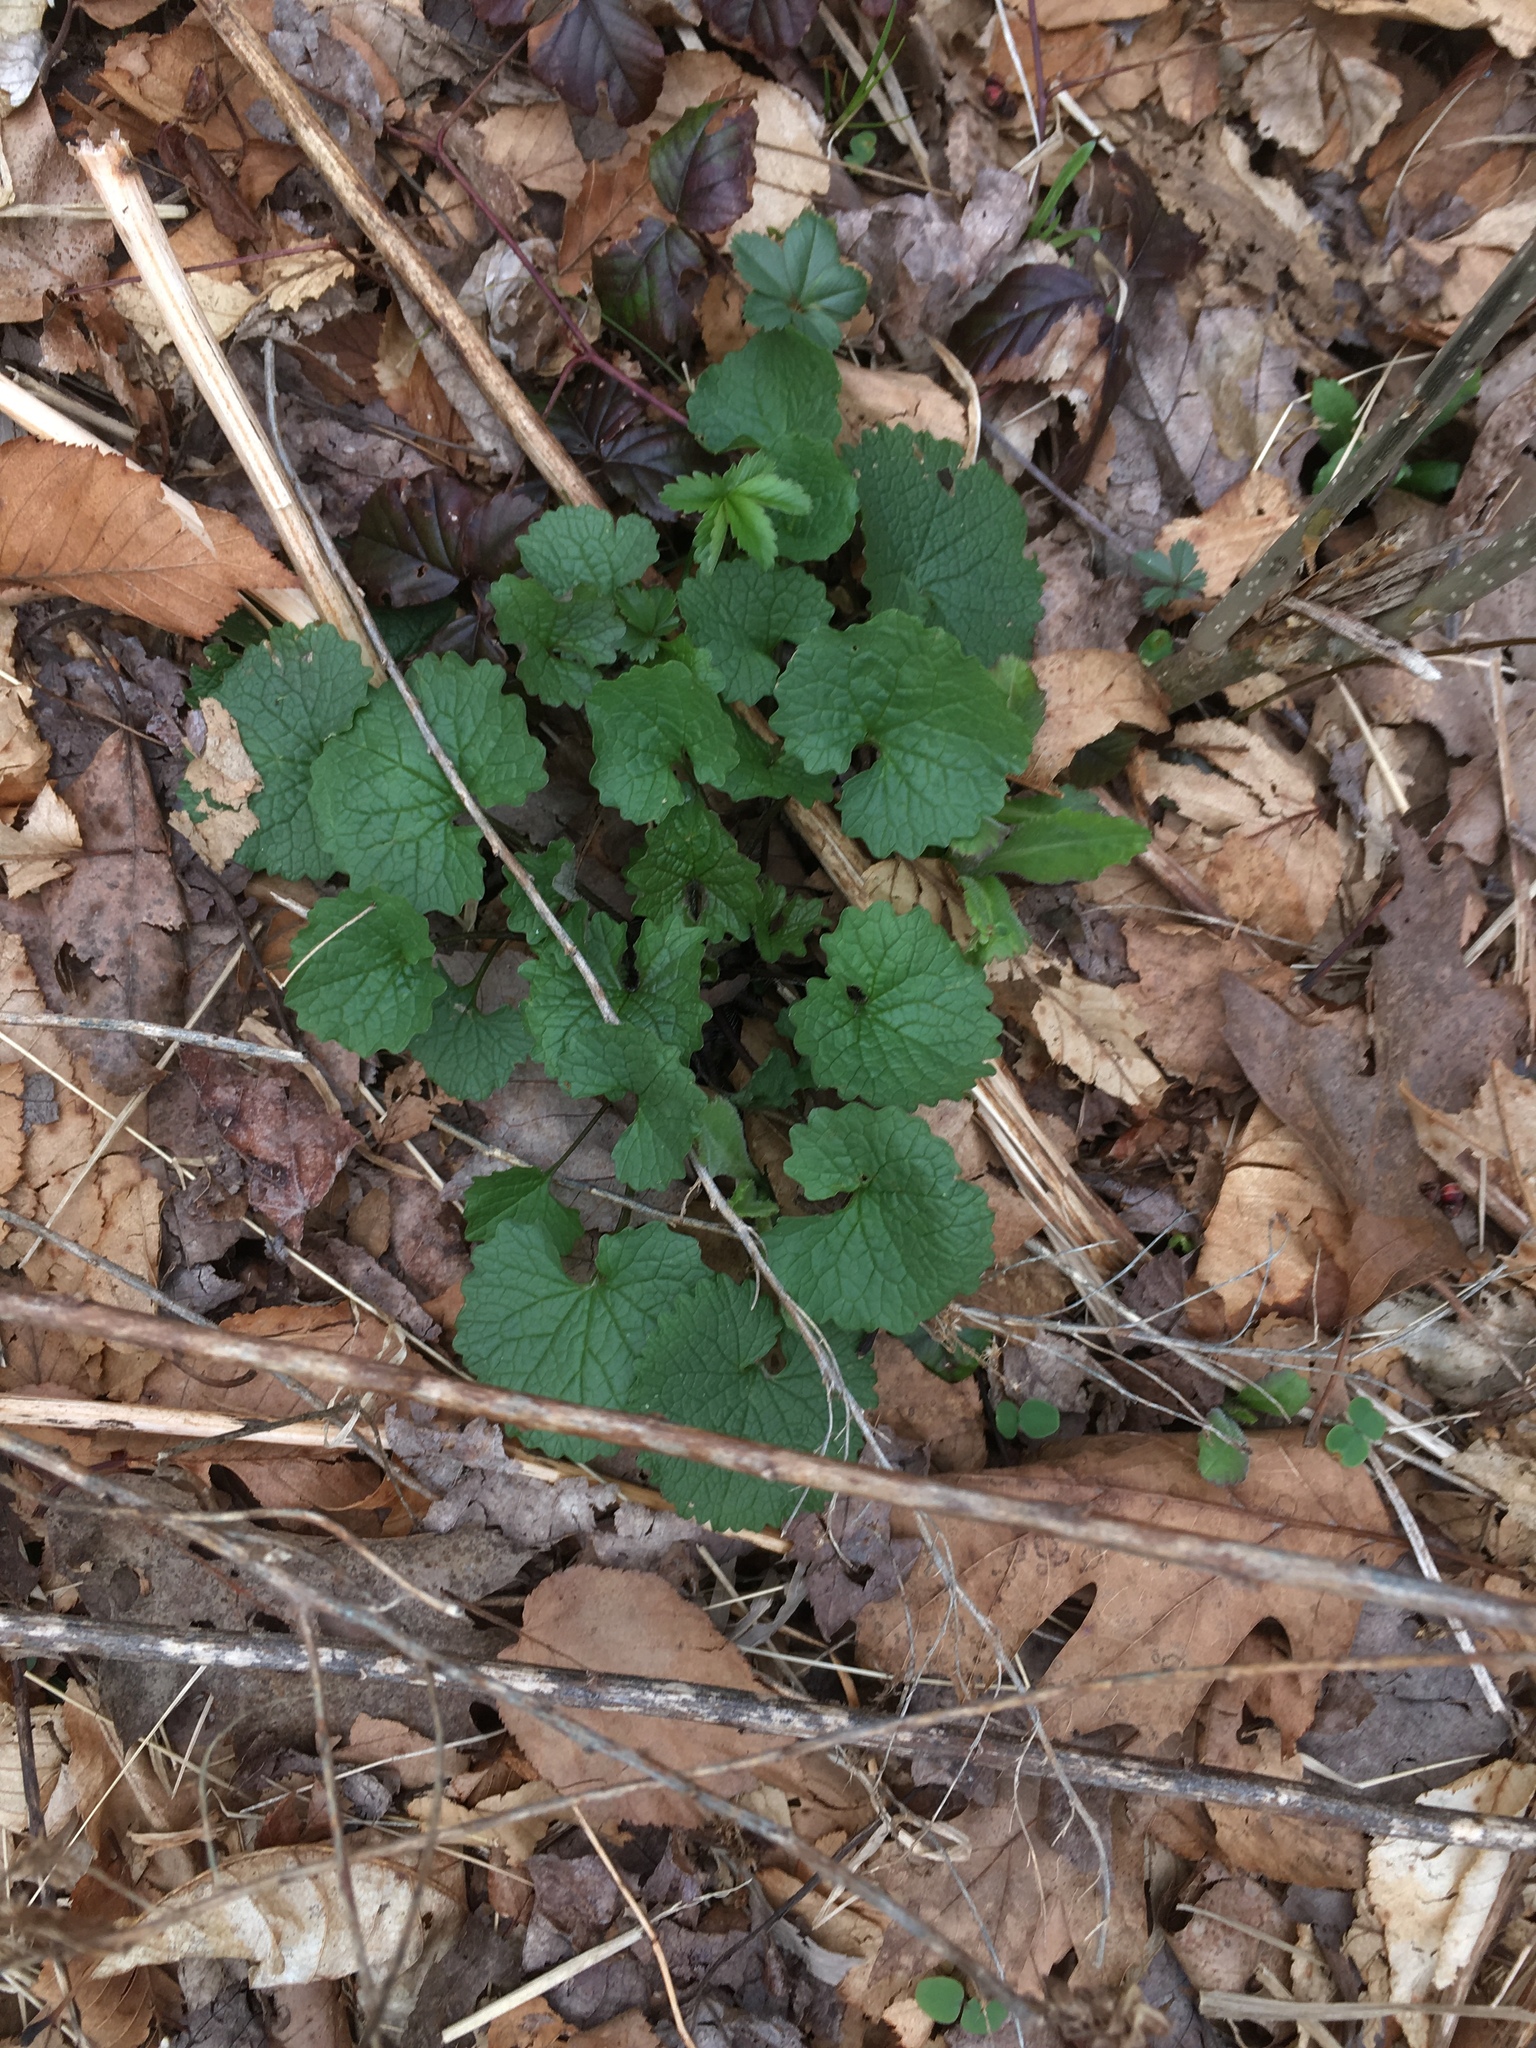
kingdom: Plantae
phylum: Tracheophyta
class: Magnoliopsida
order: Brassicales
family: Brassicaceae
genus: Alliaria
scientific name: Alliaria petiolata
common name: Garlic mustard
